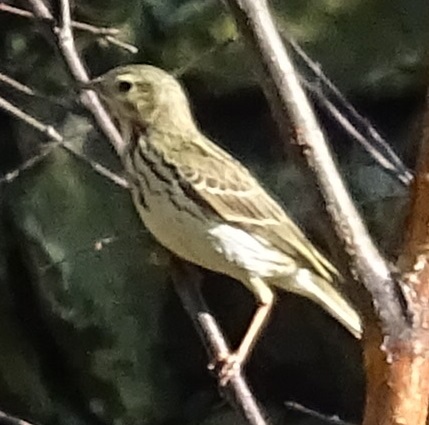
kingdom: Animalia
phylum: Chordata
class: Aves
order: Passeriformes
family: Motacillidae
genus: Anthus
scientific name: Anthus pratensis
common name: Meadow pipit
